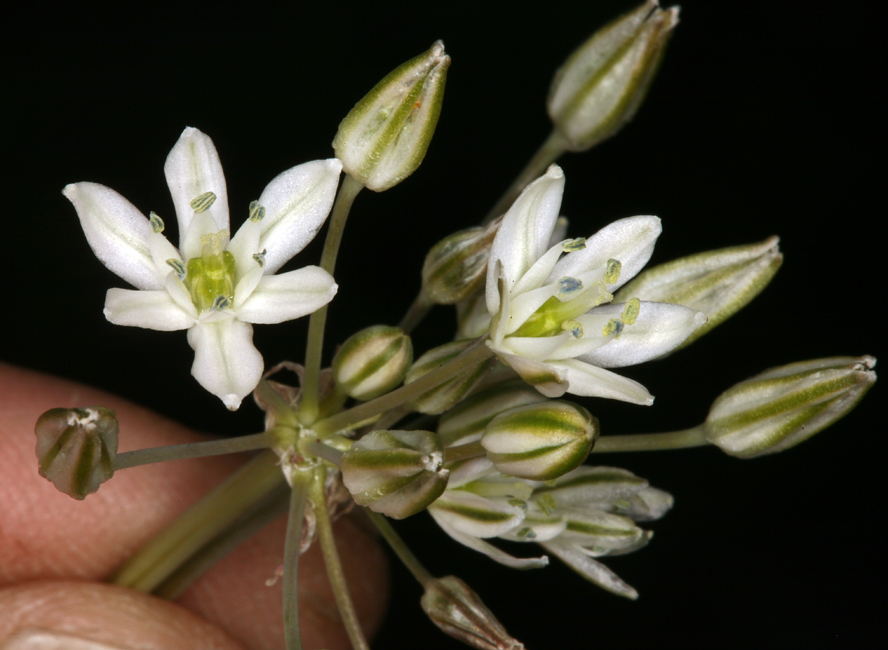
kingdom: Plantae
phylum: Tracheophyta
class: Liliopsida
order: Asparagales
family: Asparagaceae
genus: Muilla
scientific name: Muilla transmontana
